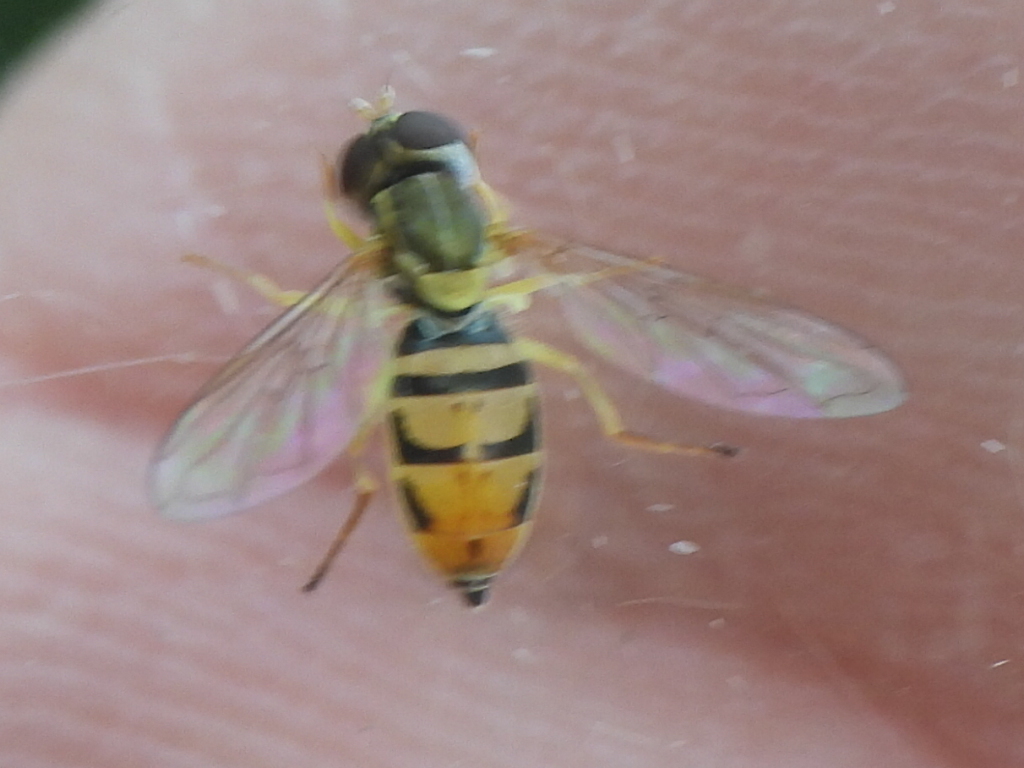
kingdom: Animalia
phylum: Arthropoda
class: Insecta
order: Diptera
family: Syrphidae
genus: Toxomerus
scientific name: Toxomerus marginatus
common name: Syrphid fly
